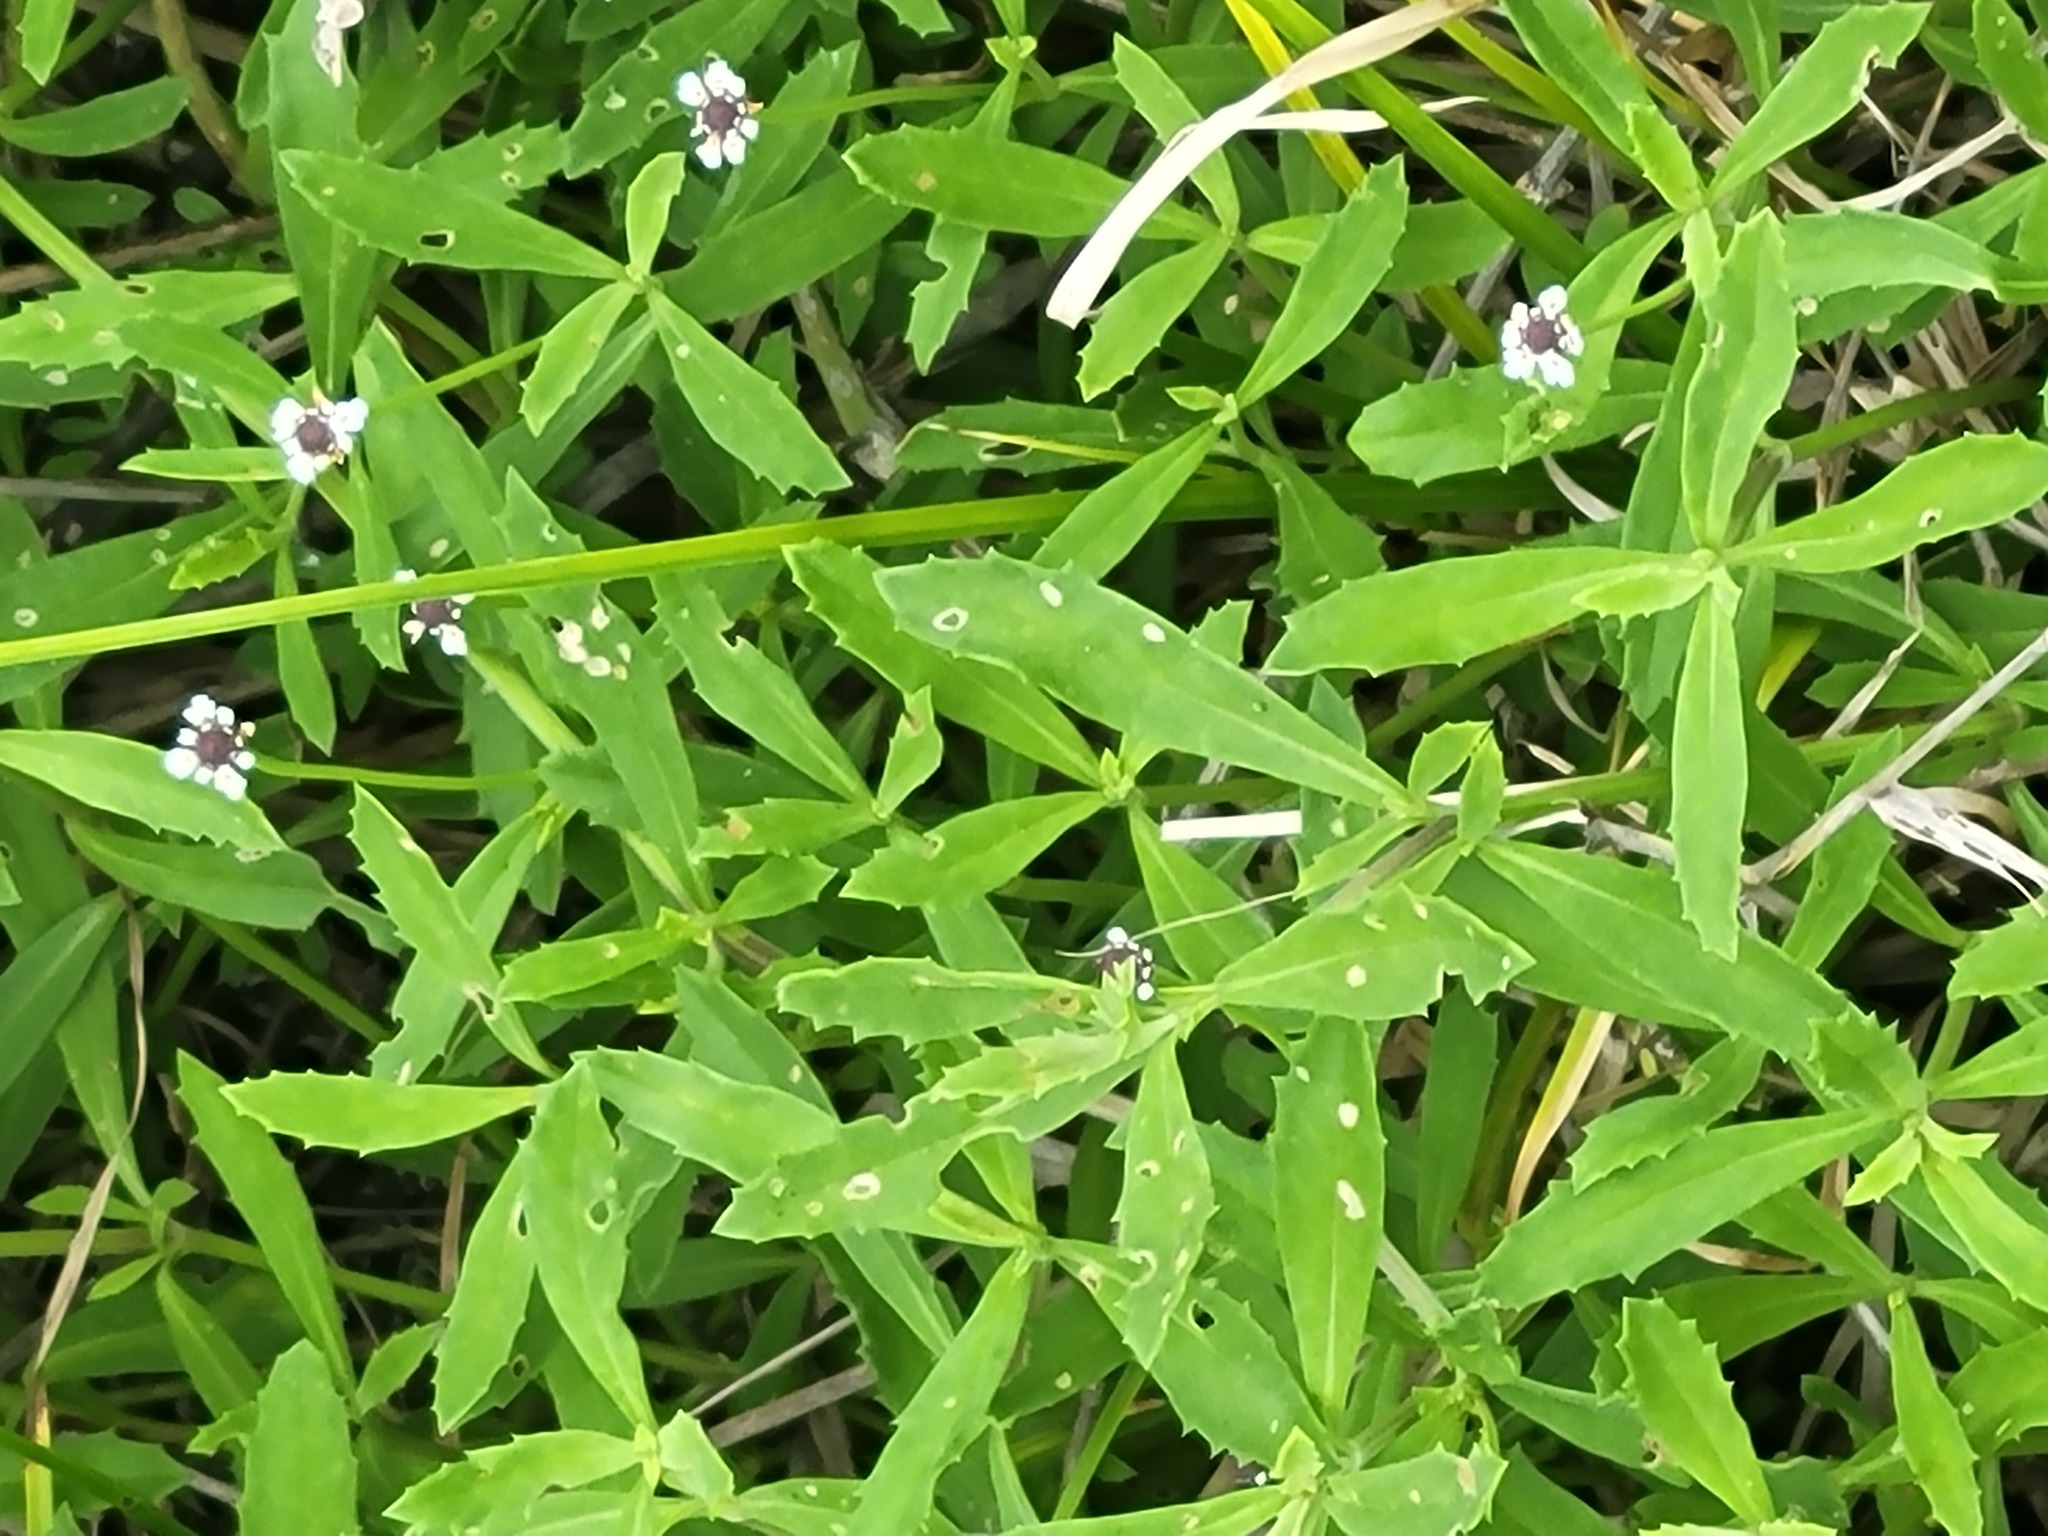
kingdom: Plantae
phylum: Tracheophyta
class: Magnoliopsida
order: Lamiales
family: Verbenaceae
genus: Phyla
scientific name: Phyla lanceolata
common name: Northern fogfruit
